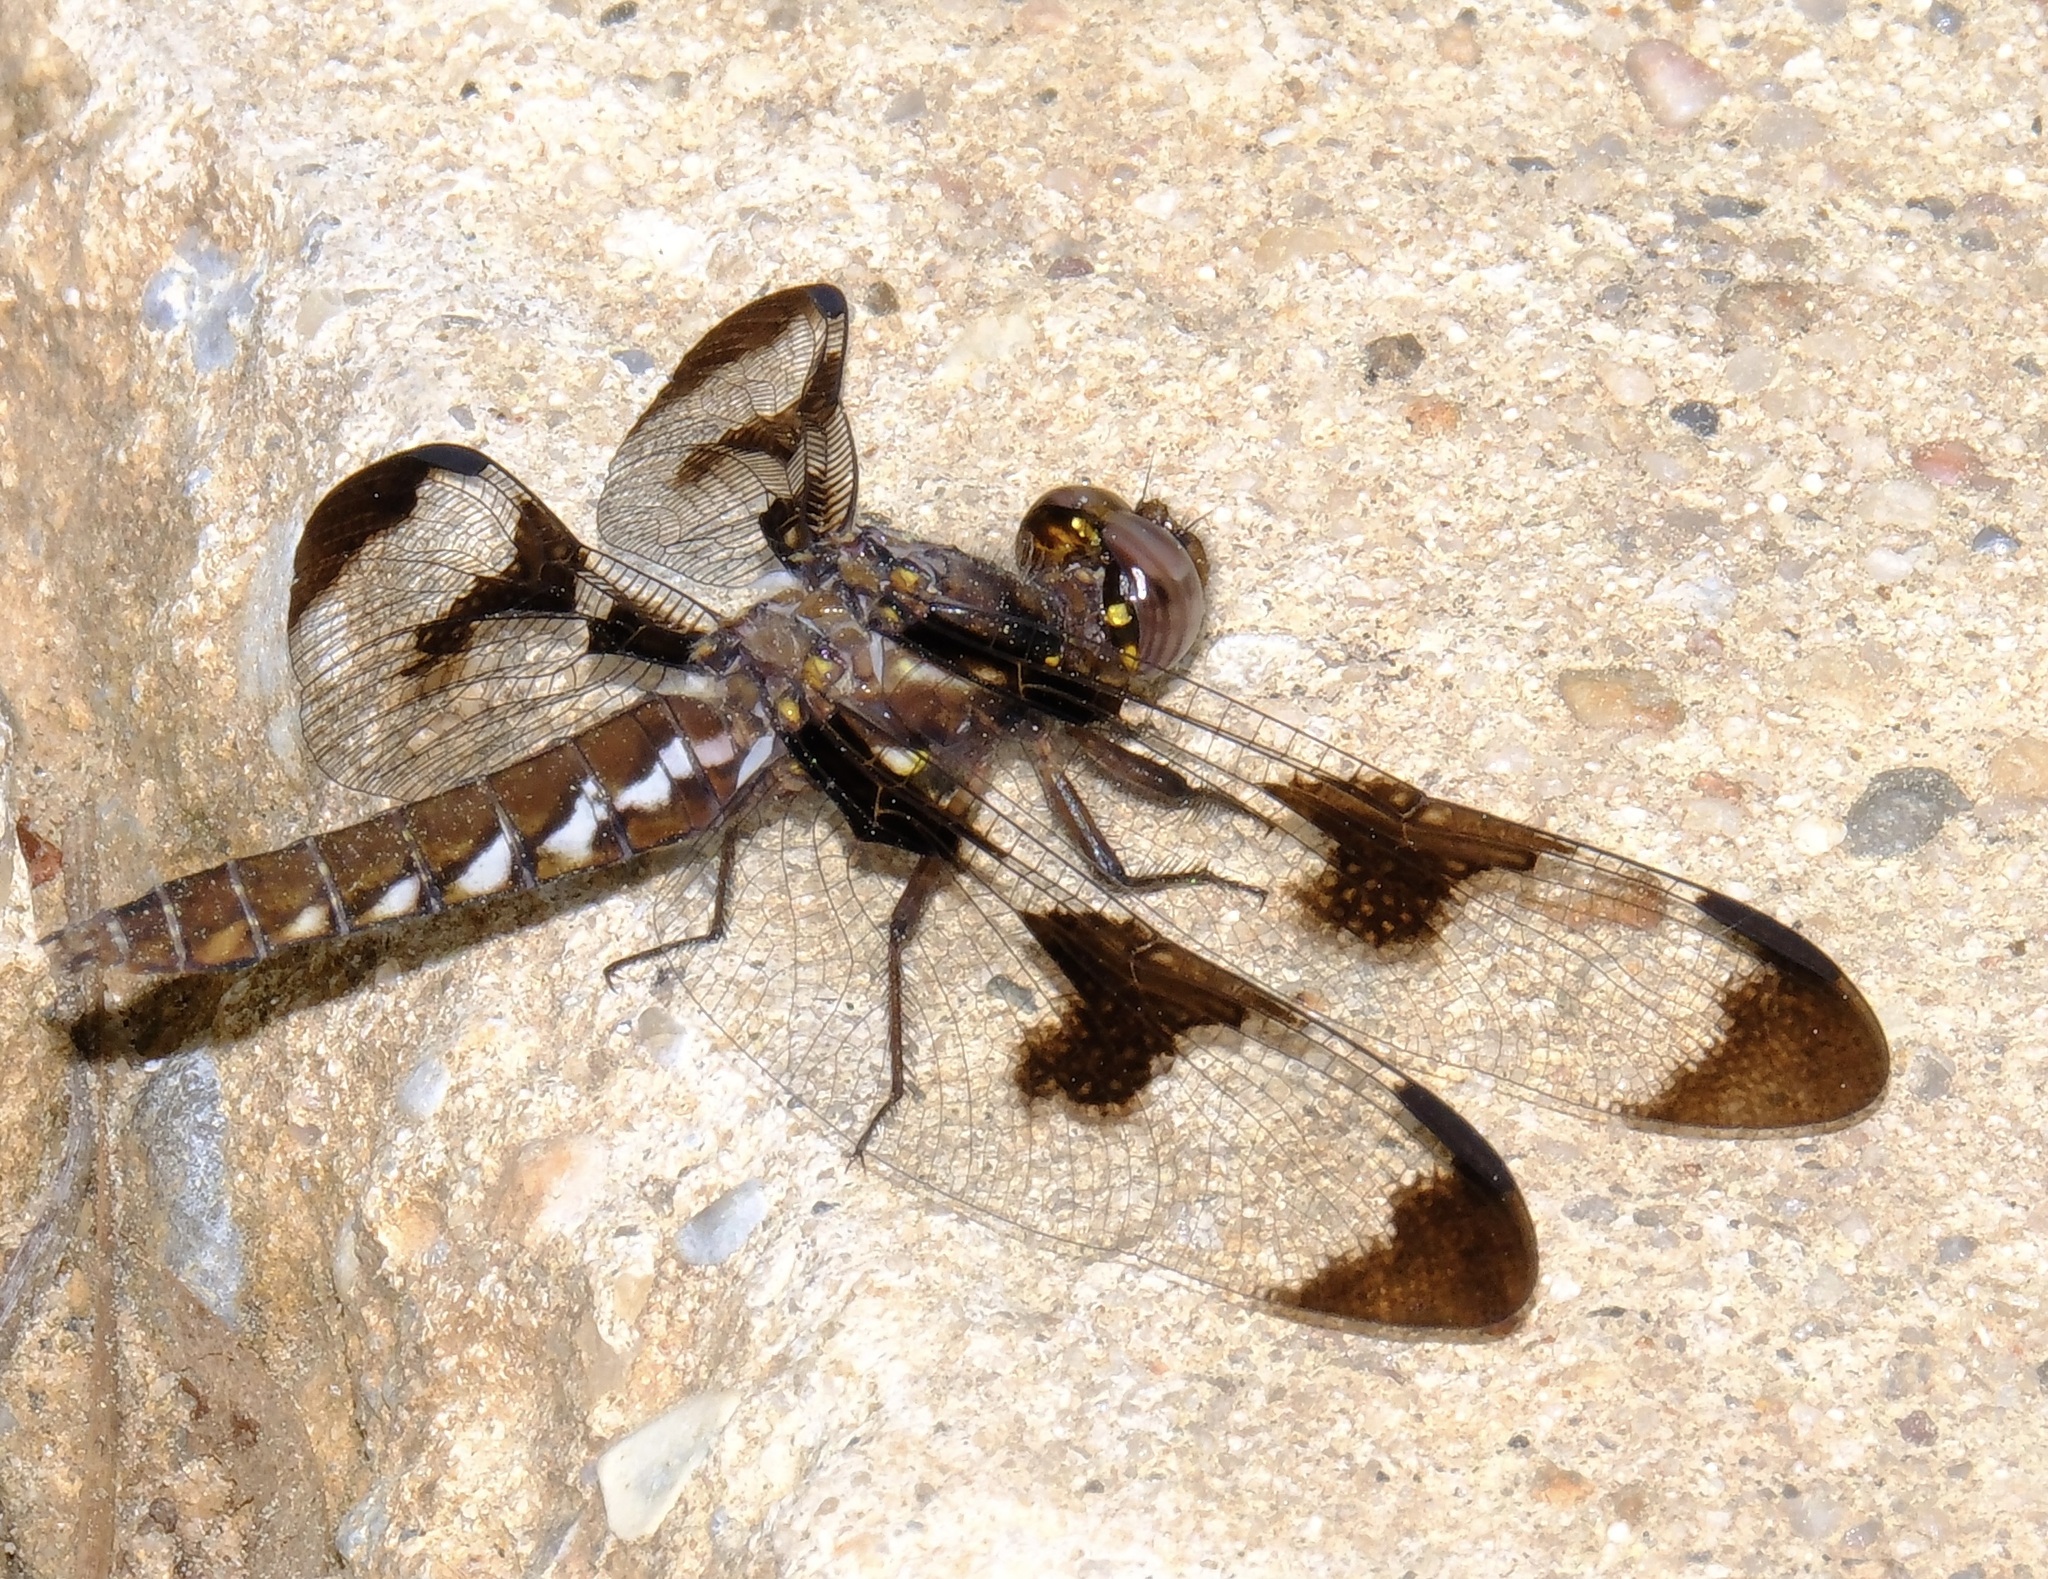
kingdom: Animalia
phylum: Arthropoda
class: Insecta
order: Odonata
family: Libellulidae
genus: Plathemis
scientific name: Plathemis lydia
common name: Common whitetail
